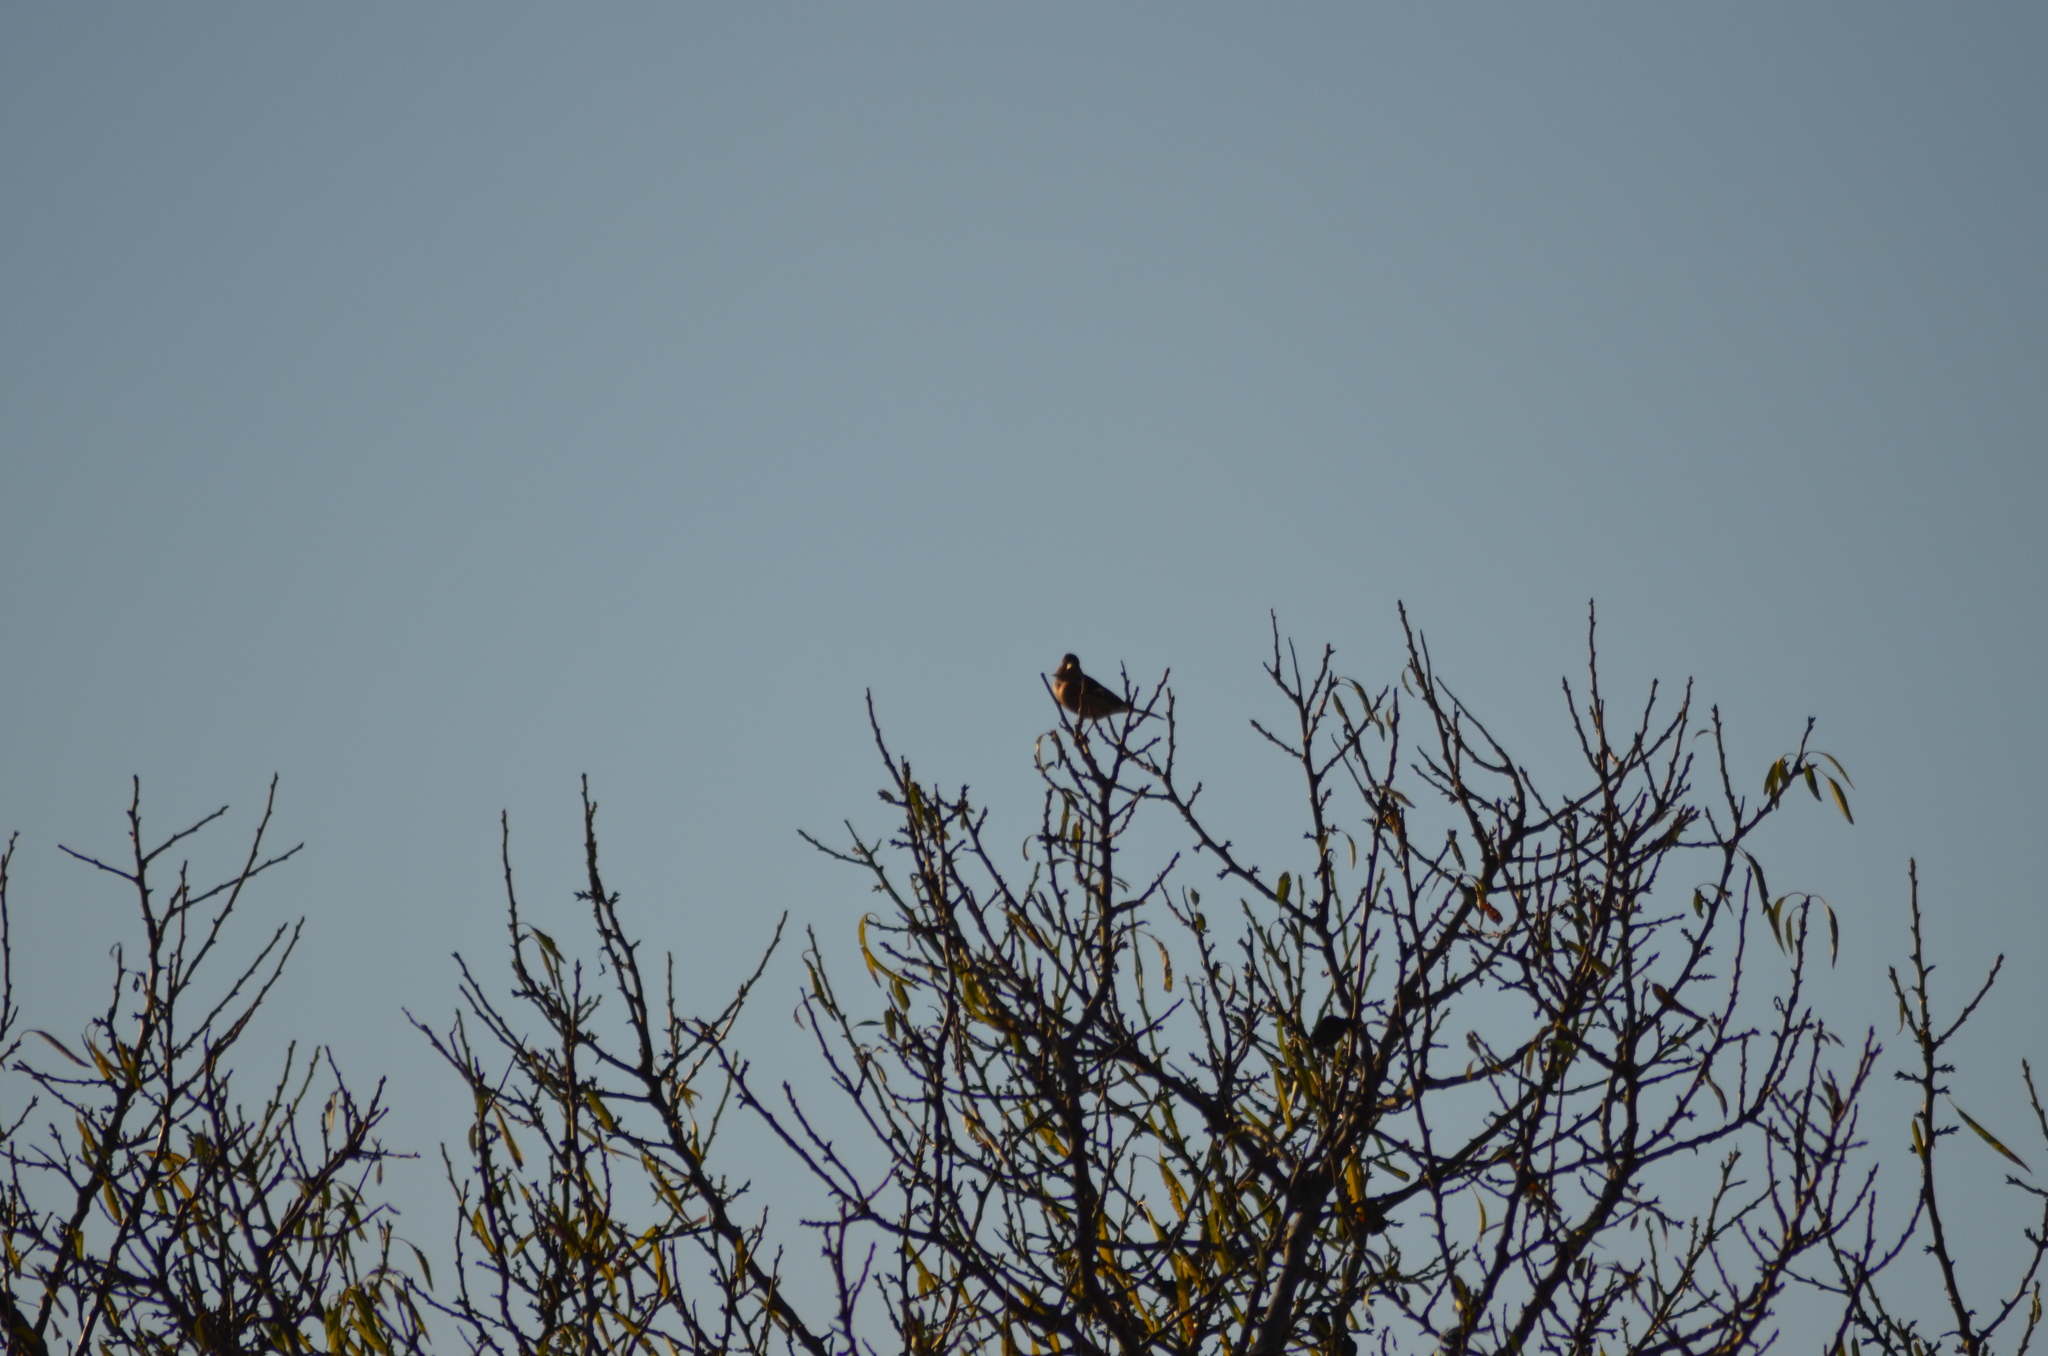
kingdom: Animalia
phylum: Chordata
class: Aves
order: Passeriformes
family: Fringillidae
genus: Fringilla
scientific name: Fringilla coelebs
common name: Common chaffinch
